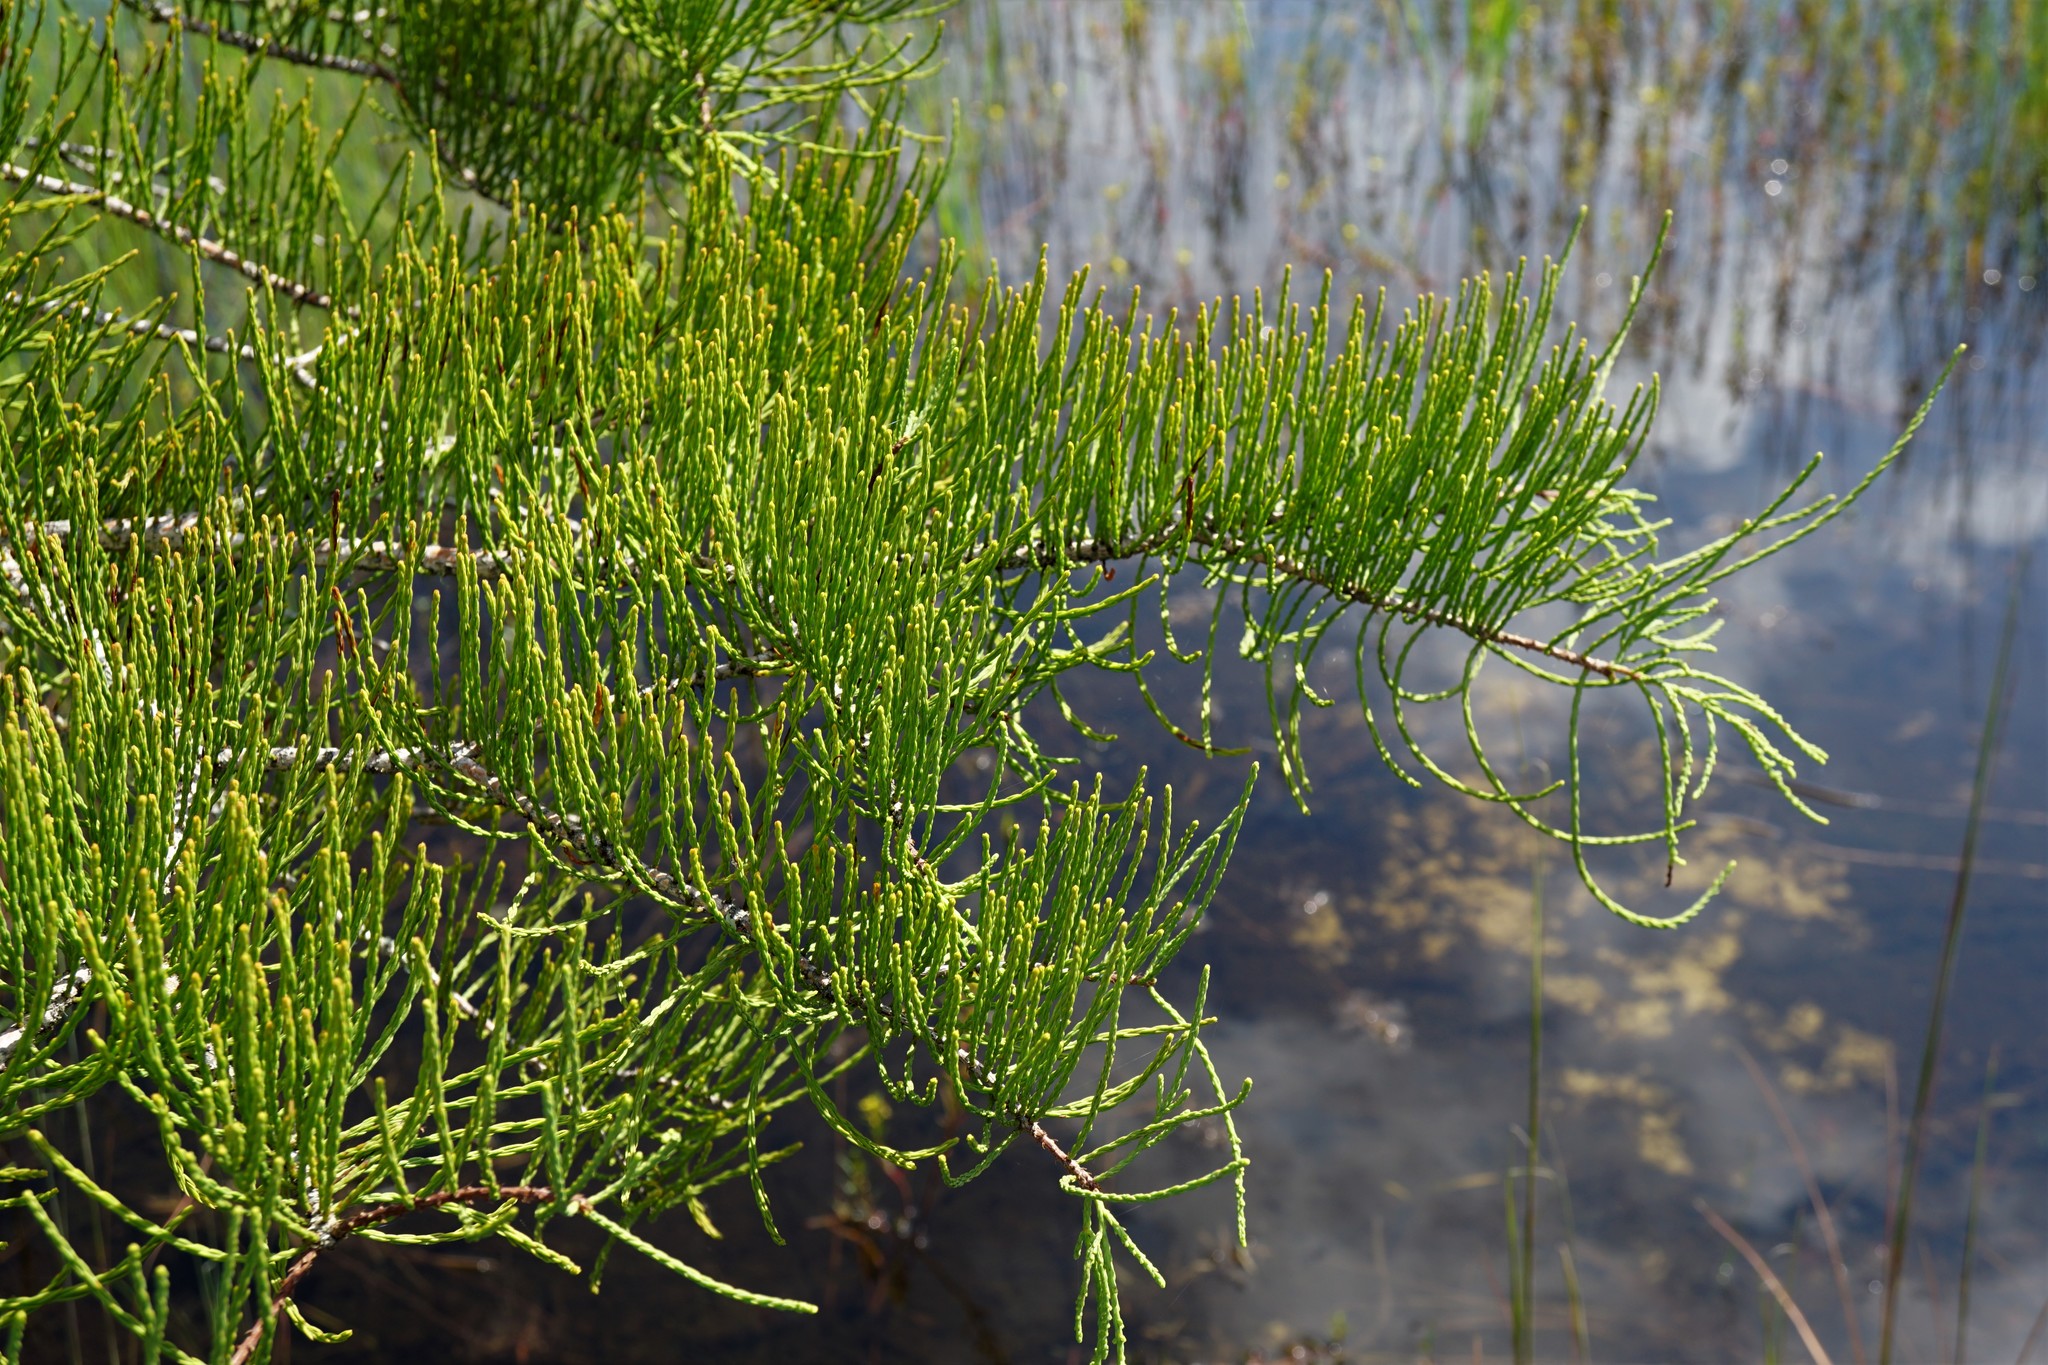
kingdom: Plantae
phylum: Tracheophyta
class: Pinopsida
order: Pinales
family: Cupressaceae
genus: Taxodium
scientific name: Taxodium distichum
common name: Bald cypress
